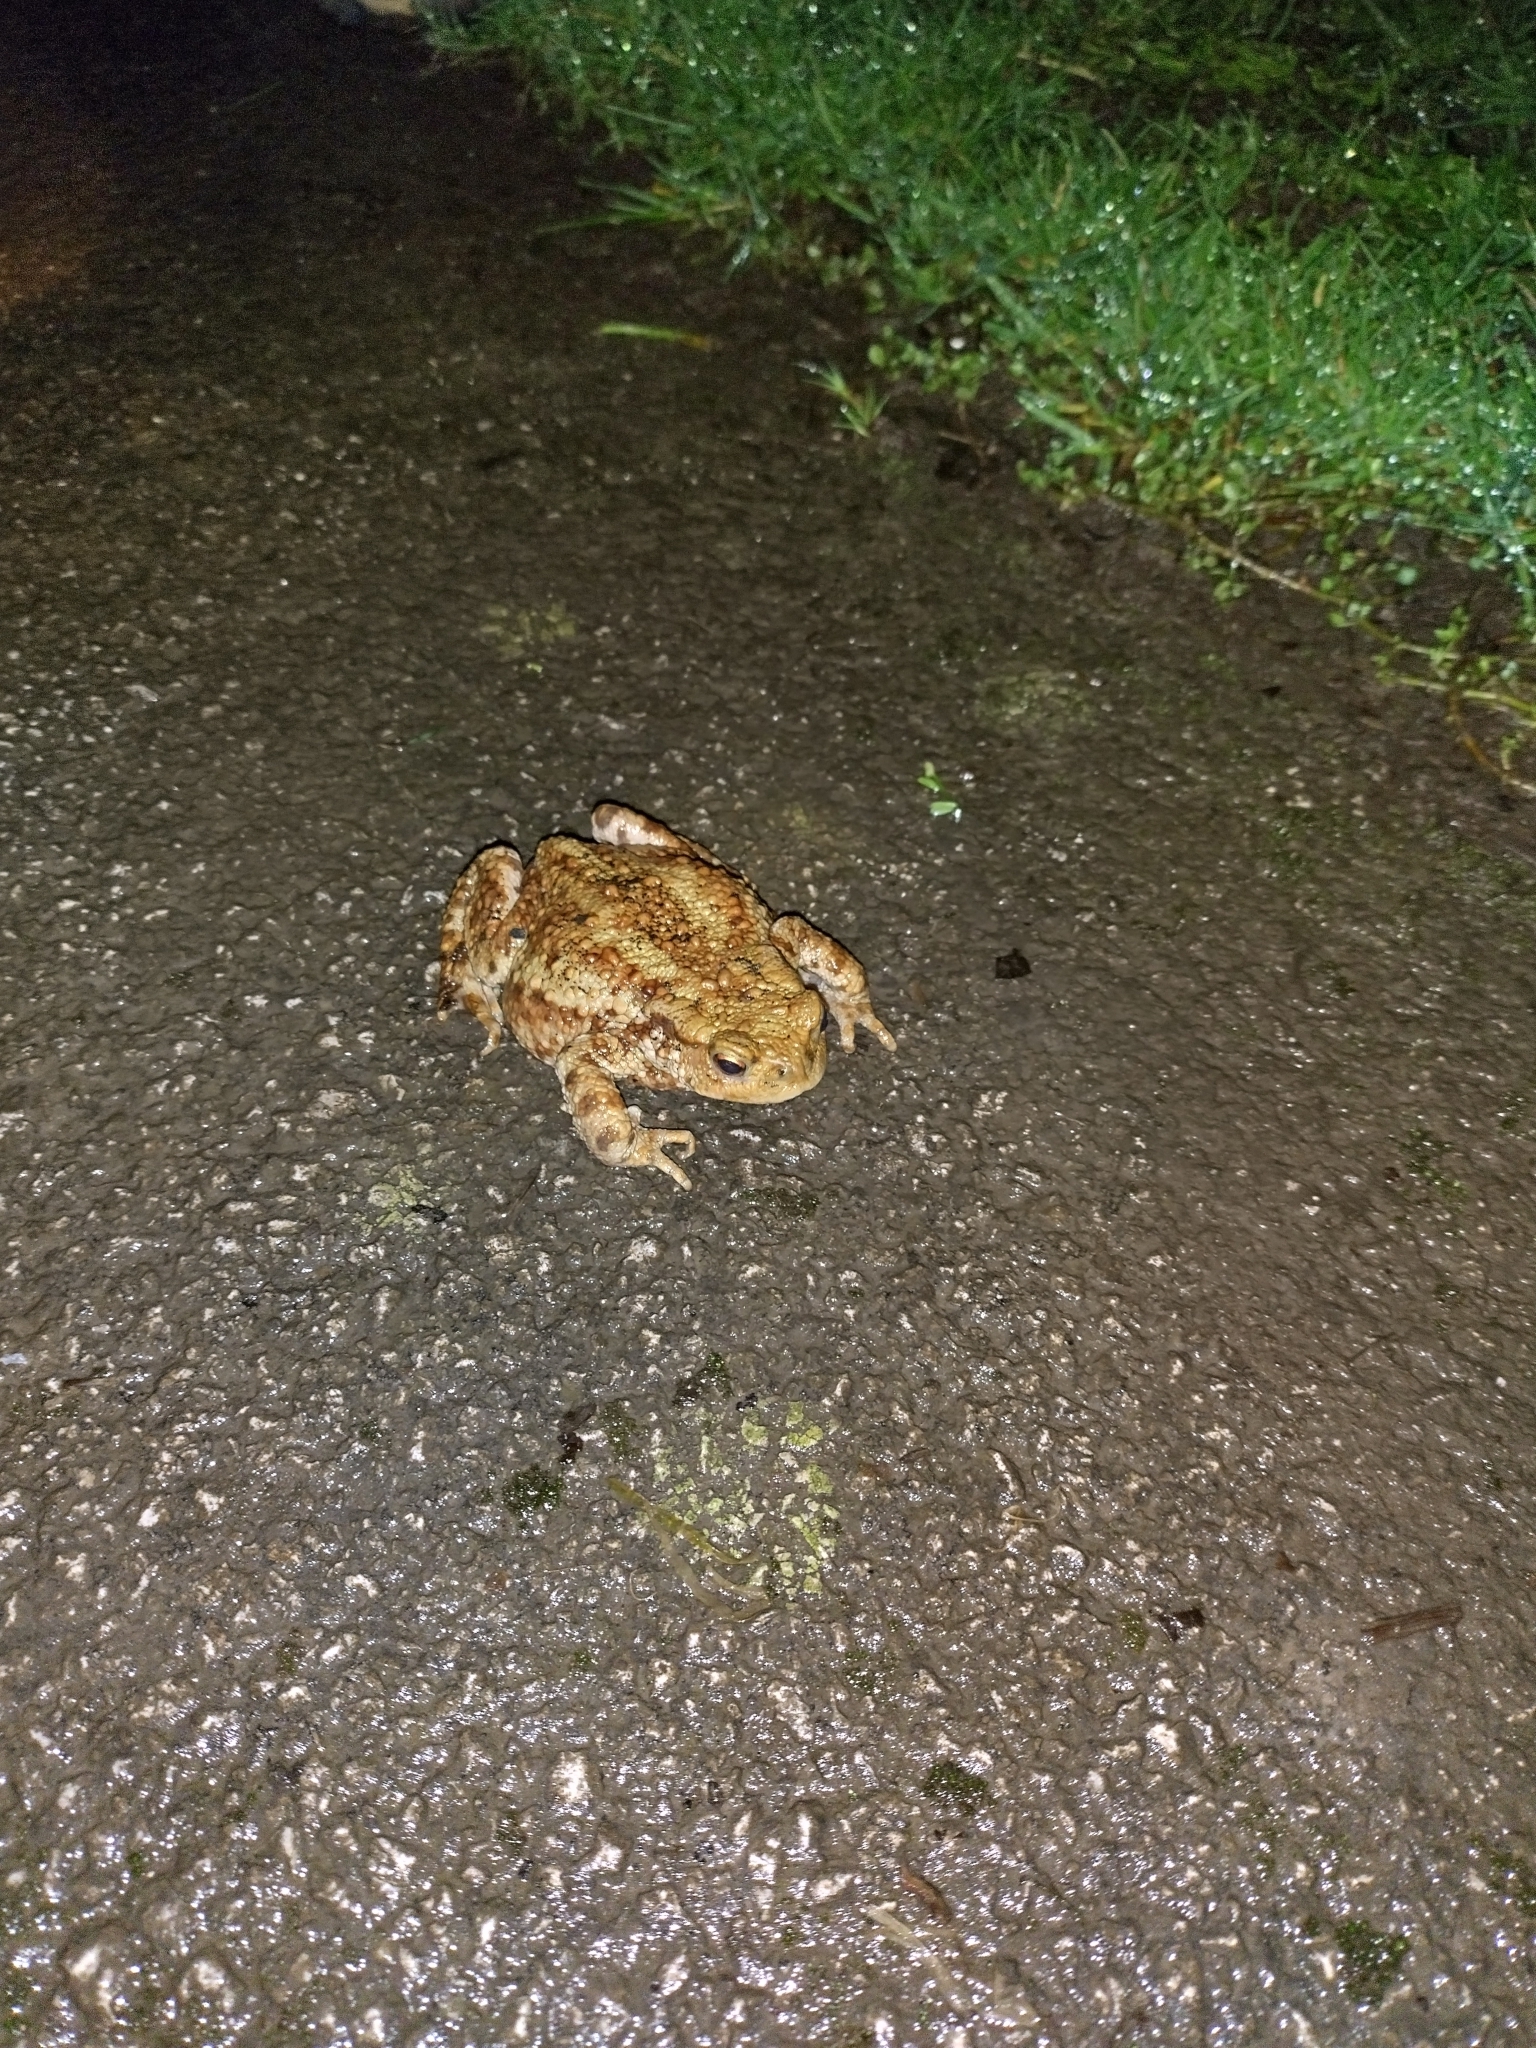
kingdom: Animalia
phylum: Chordata
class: Amphibia
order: Anura
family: Bufonidae
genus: Bufo
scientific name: Bufo bufo
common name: Common toad
